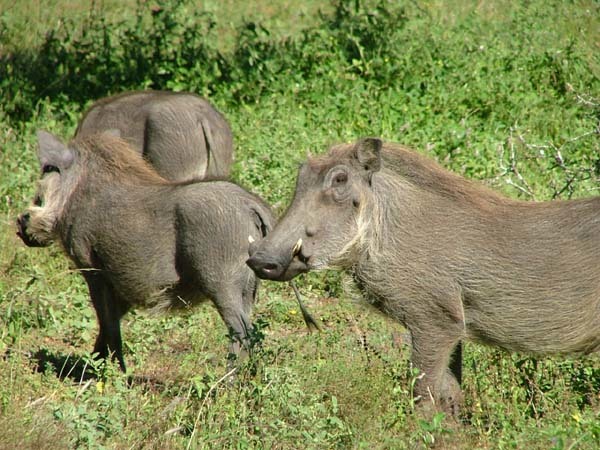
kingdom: Animalia
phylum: Chordata
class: Mammalia
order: Artiodactyla
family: Suidae
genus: Phacochoerus
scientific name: Phacochoerus africanus
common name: Common warthog
